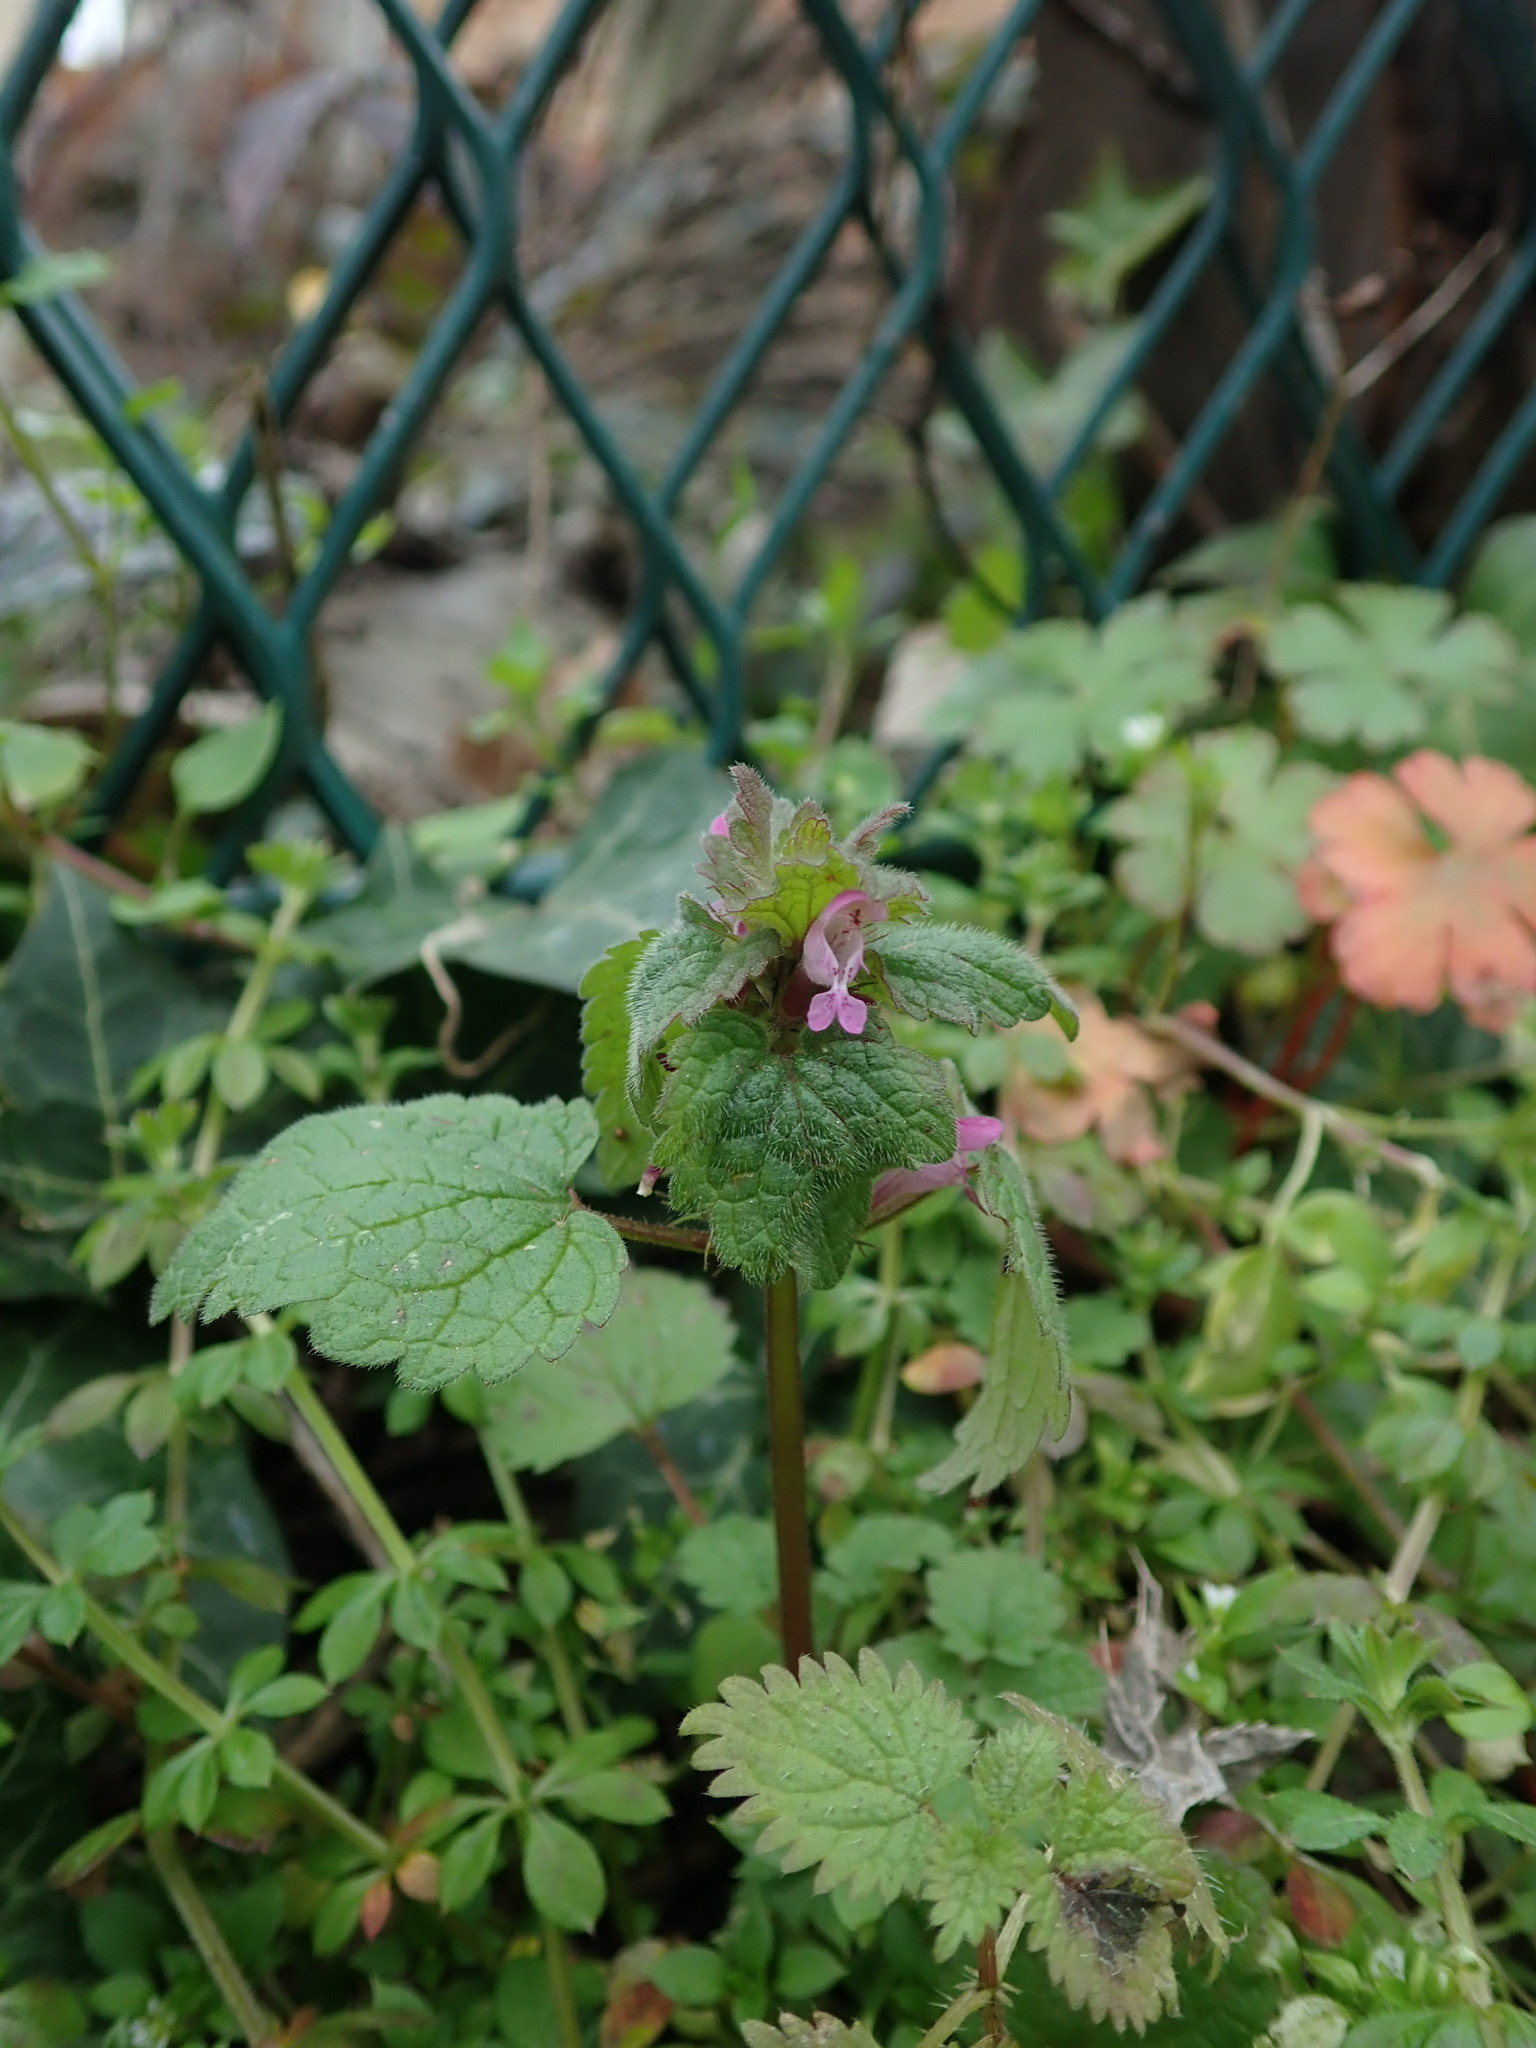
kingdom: Plantae
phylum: Tracheophyta
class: Magnoliopsida
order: Lamiales
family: Lamiaceae
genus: Lamium
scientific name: Lamium purpureum
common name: Red dead-nettle
